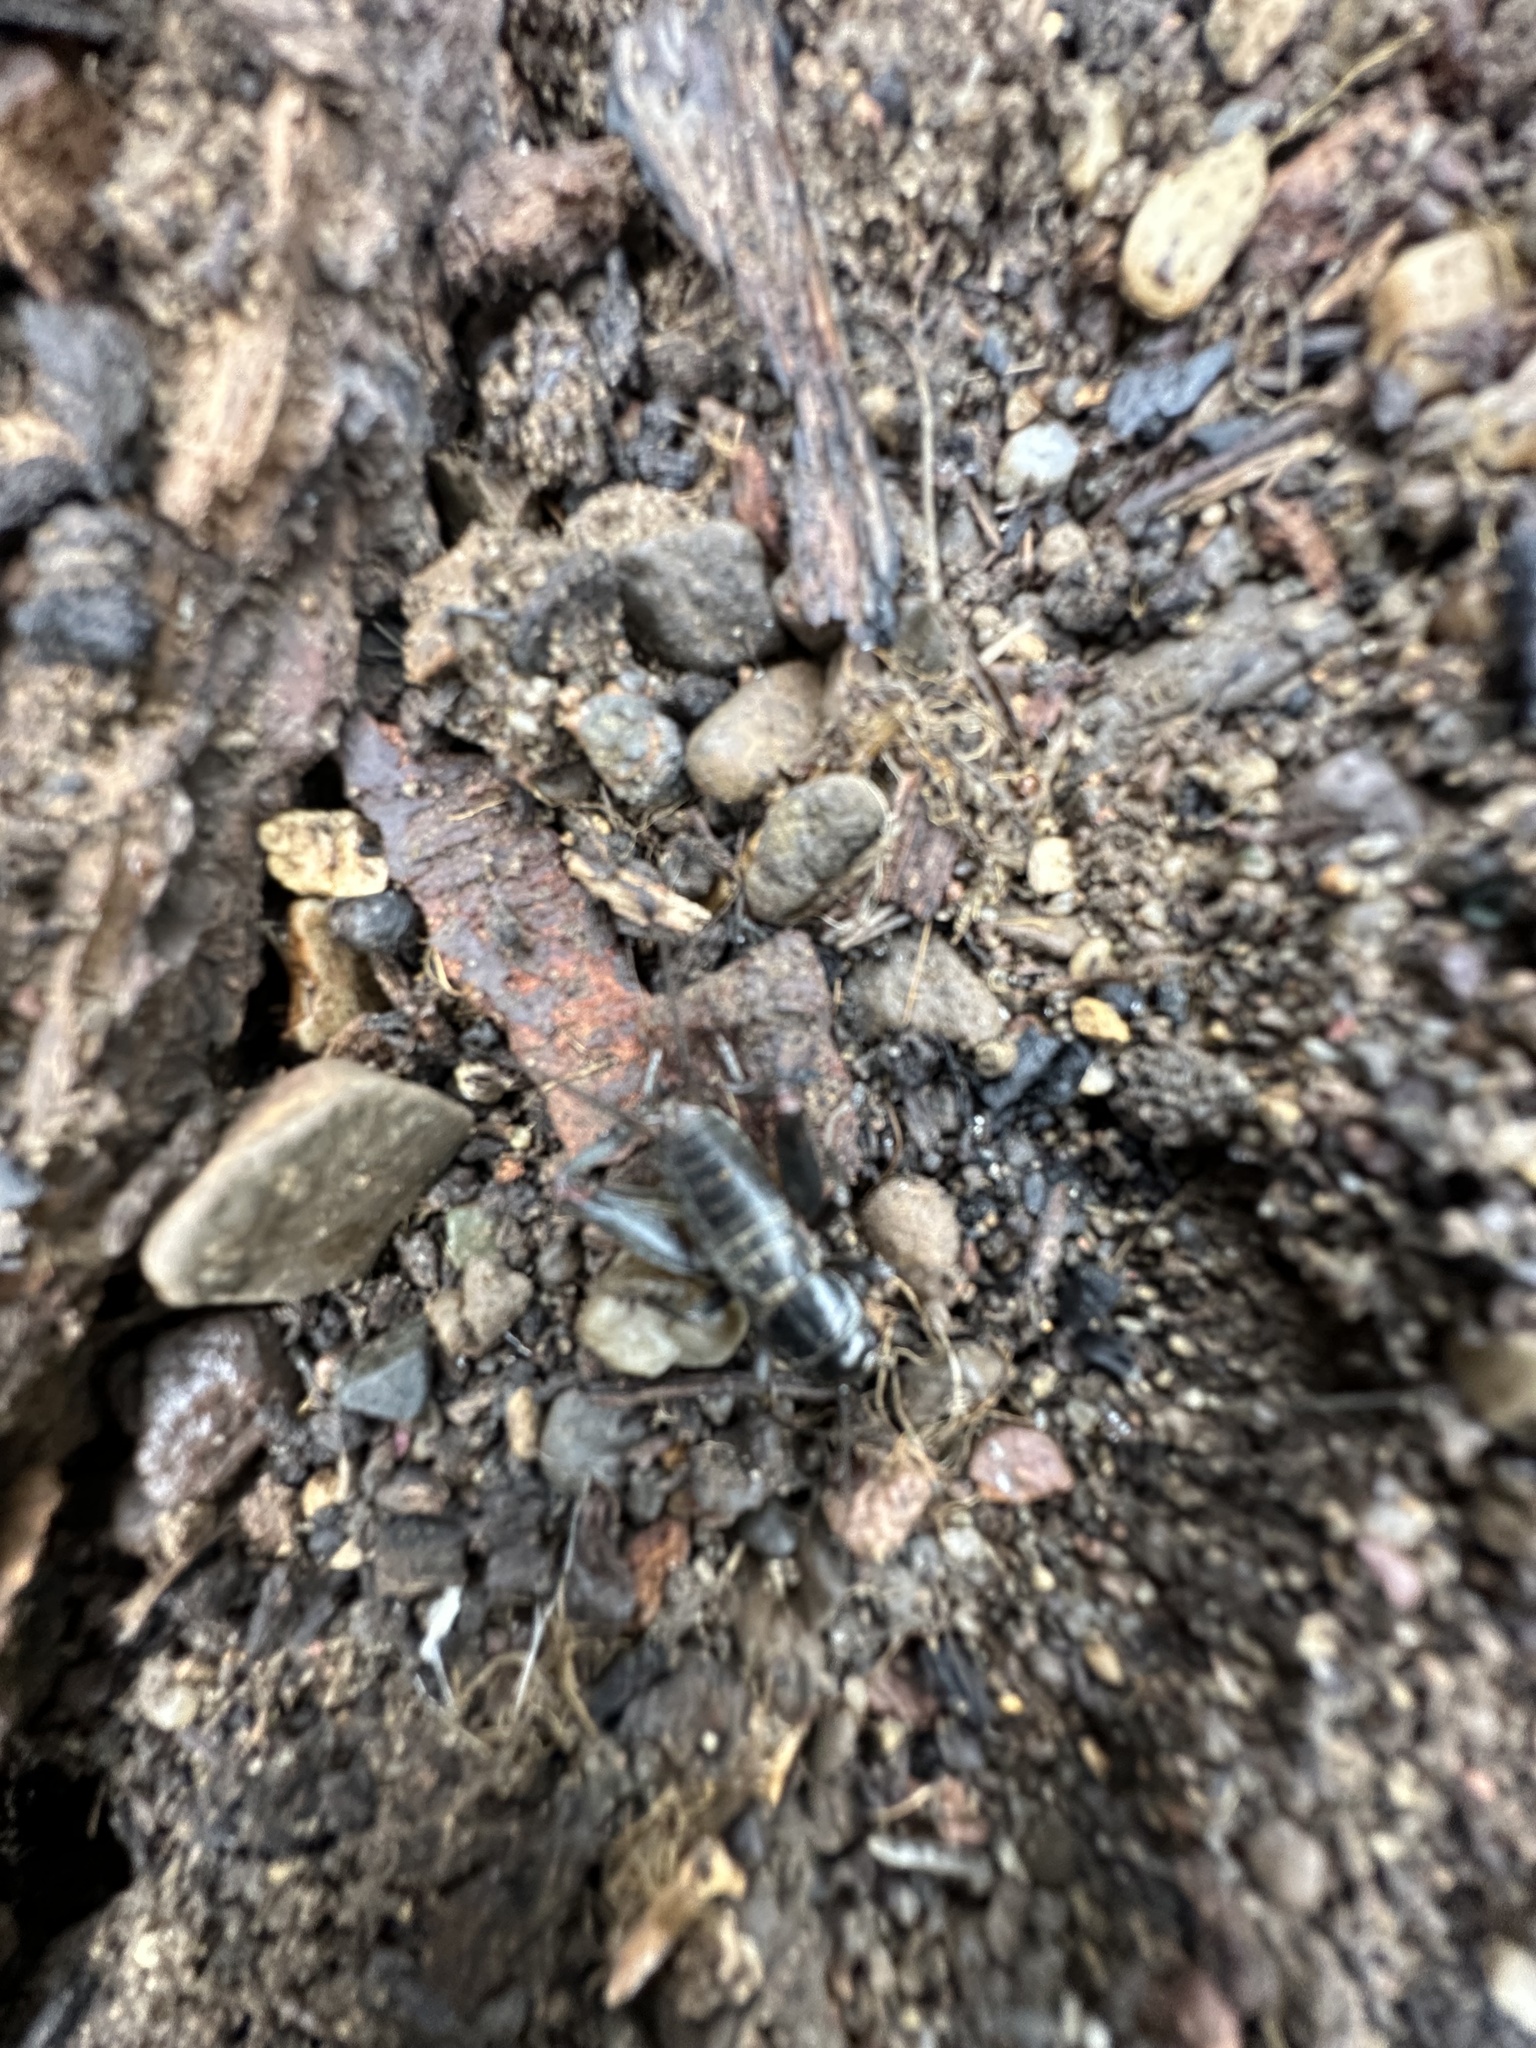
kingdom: Animalia
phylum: Arthropoda
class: Insecta
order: Orthoptera
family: Gryllidae
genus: Gryllus
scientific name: Gryllus lineaticeps
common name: Variable field cricket
